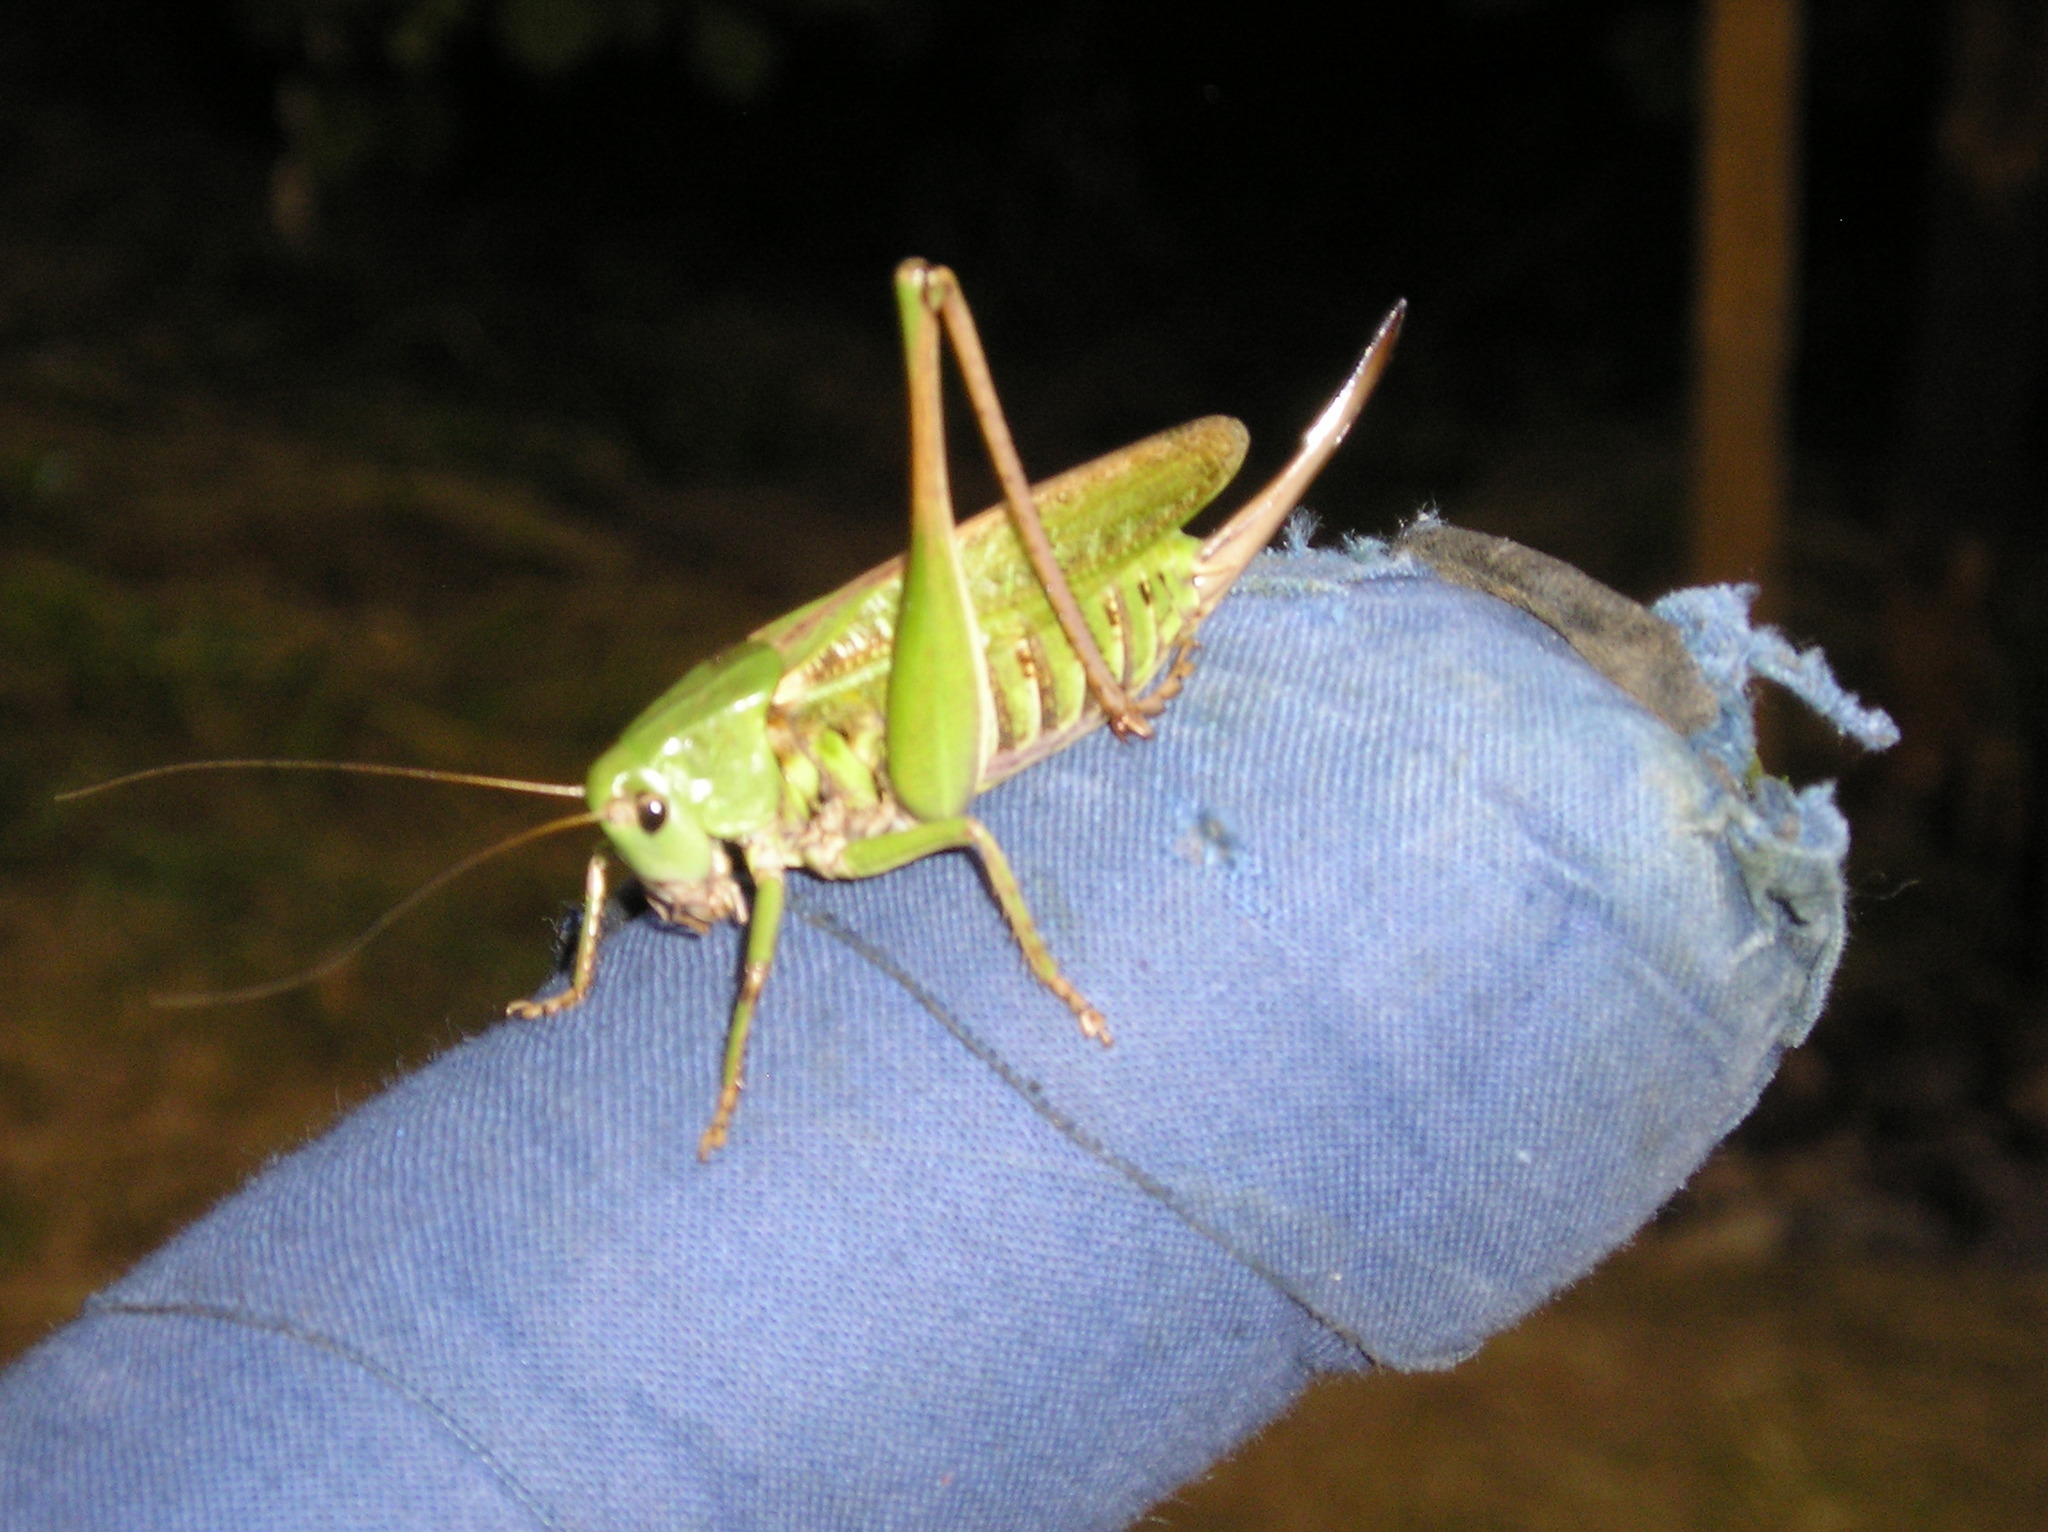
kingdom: Animalia
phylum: Arthropoda
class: Insecta
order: Orthoptera
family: Tettigoniidae
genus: Decticus
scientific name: Decticus verrucivorus
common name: Wart-biter
